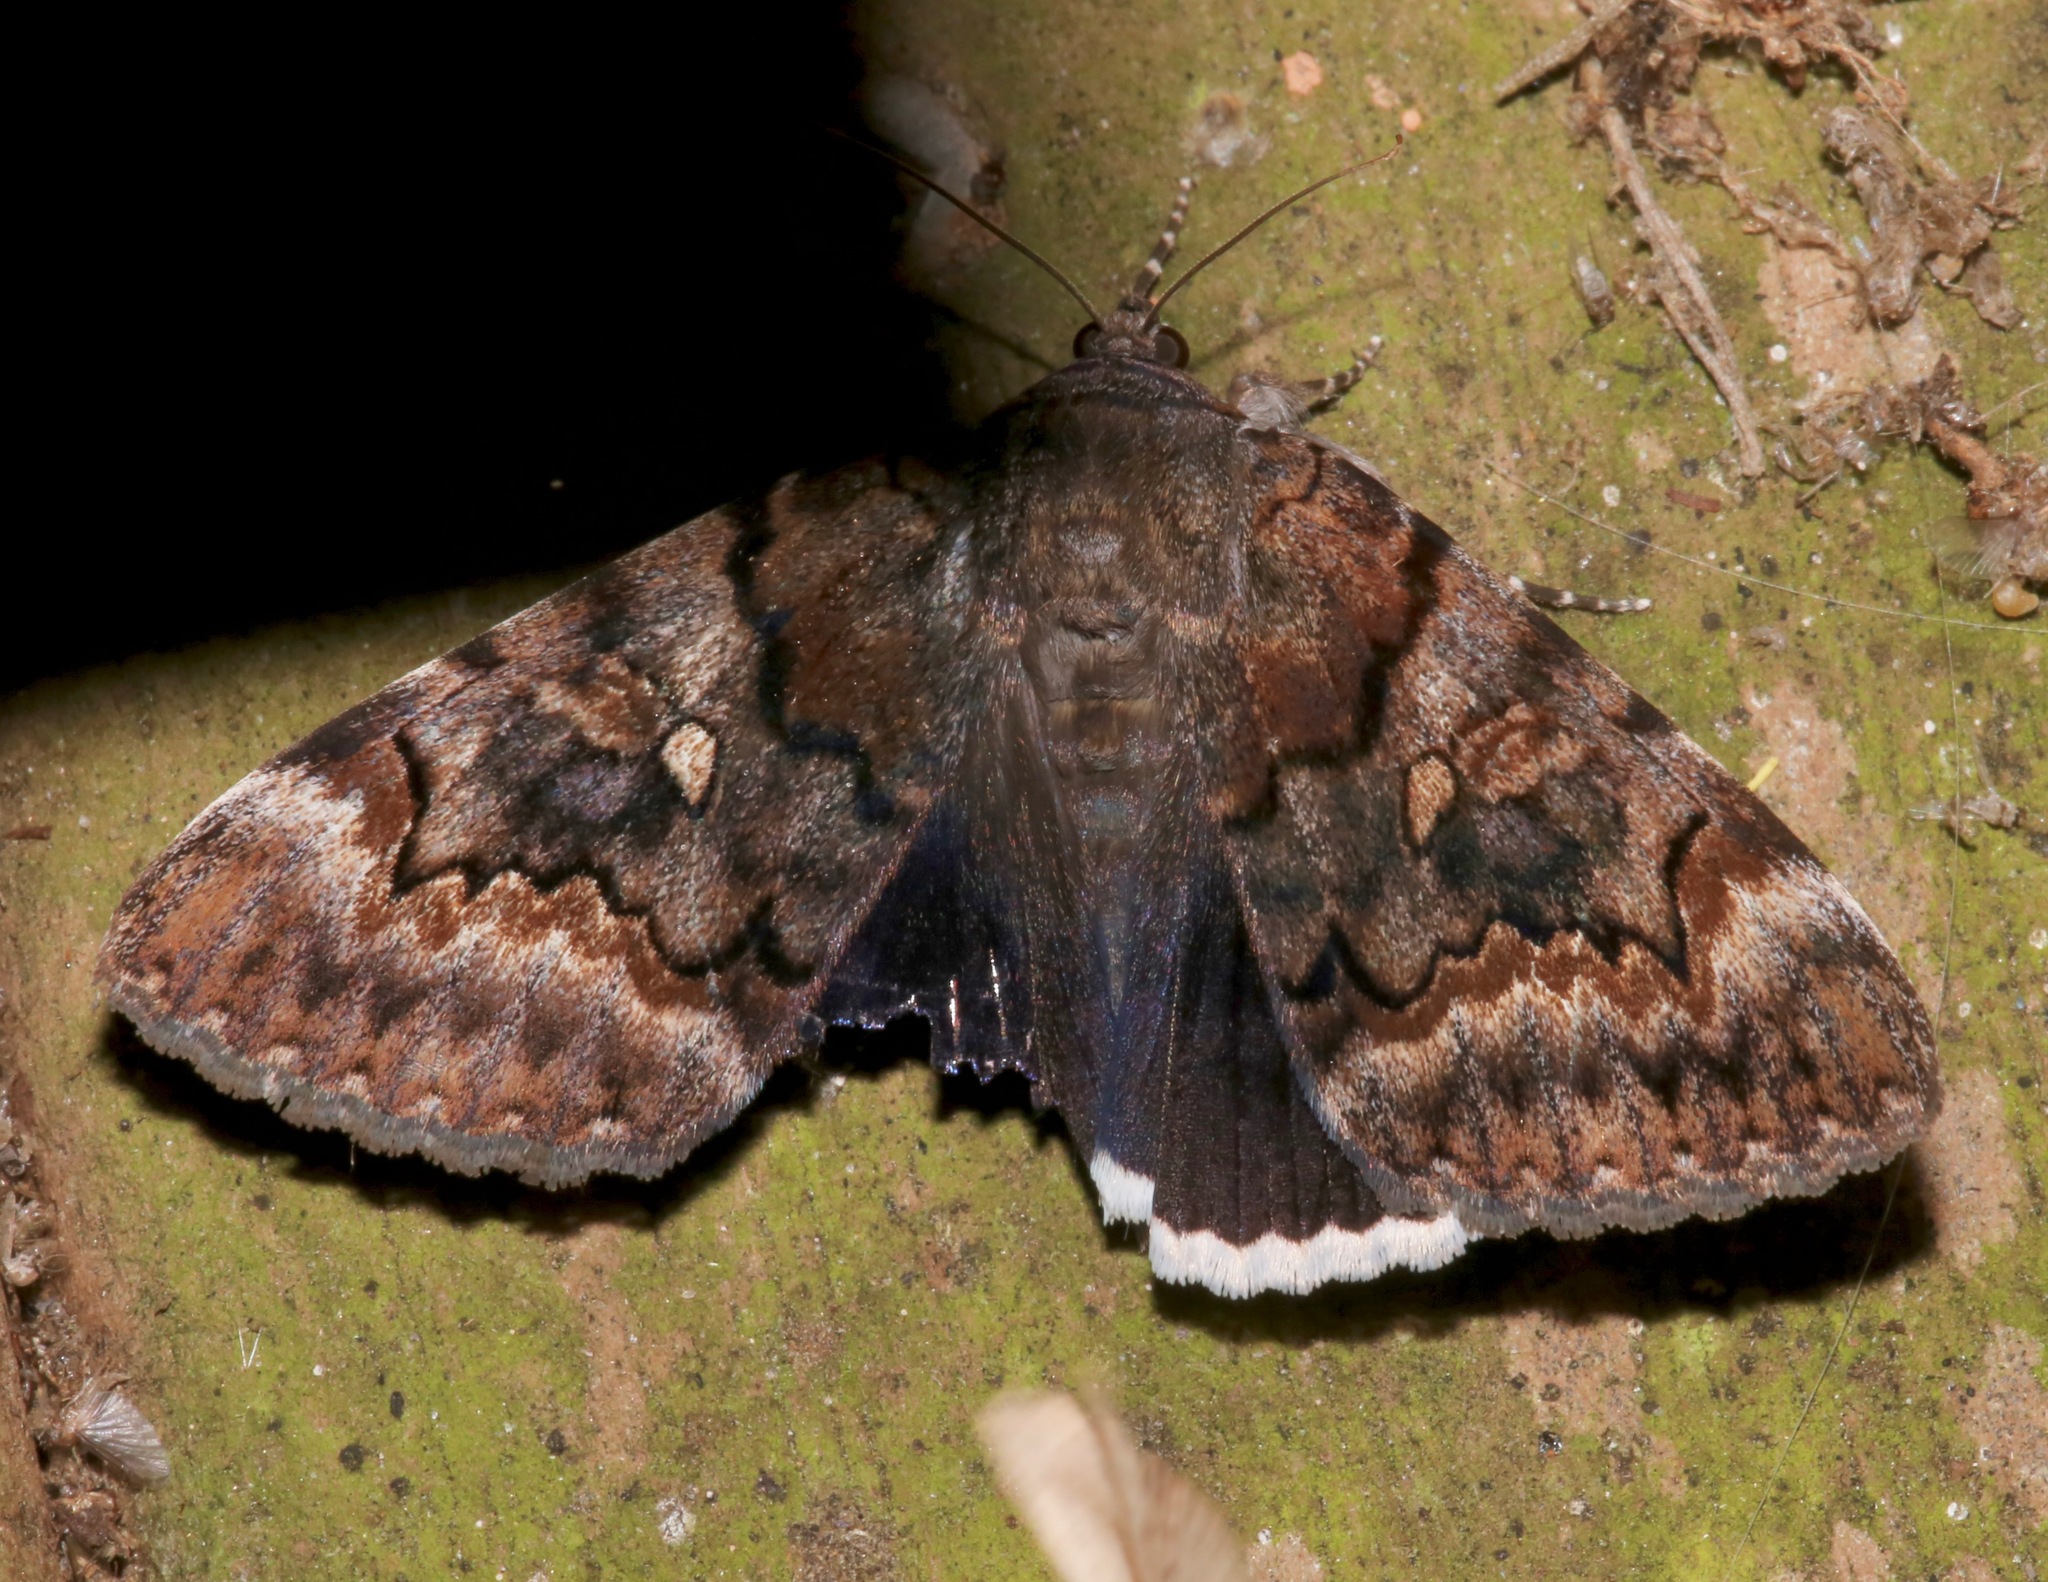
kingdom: Animalia
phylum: Arthropoda
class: Insecta
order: Lepidoptera
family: Erebidae
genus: Catocala
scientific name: Catocala epione
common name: Epione underwing
